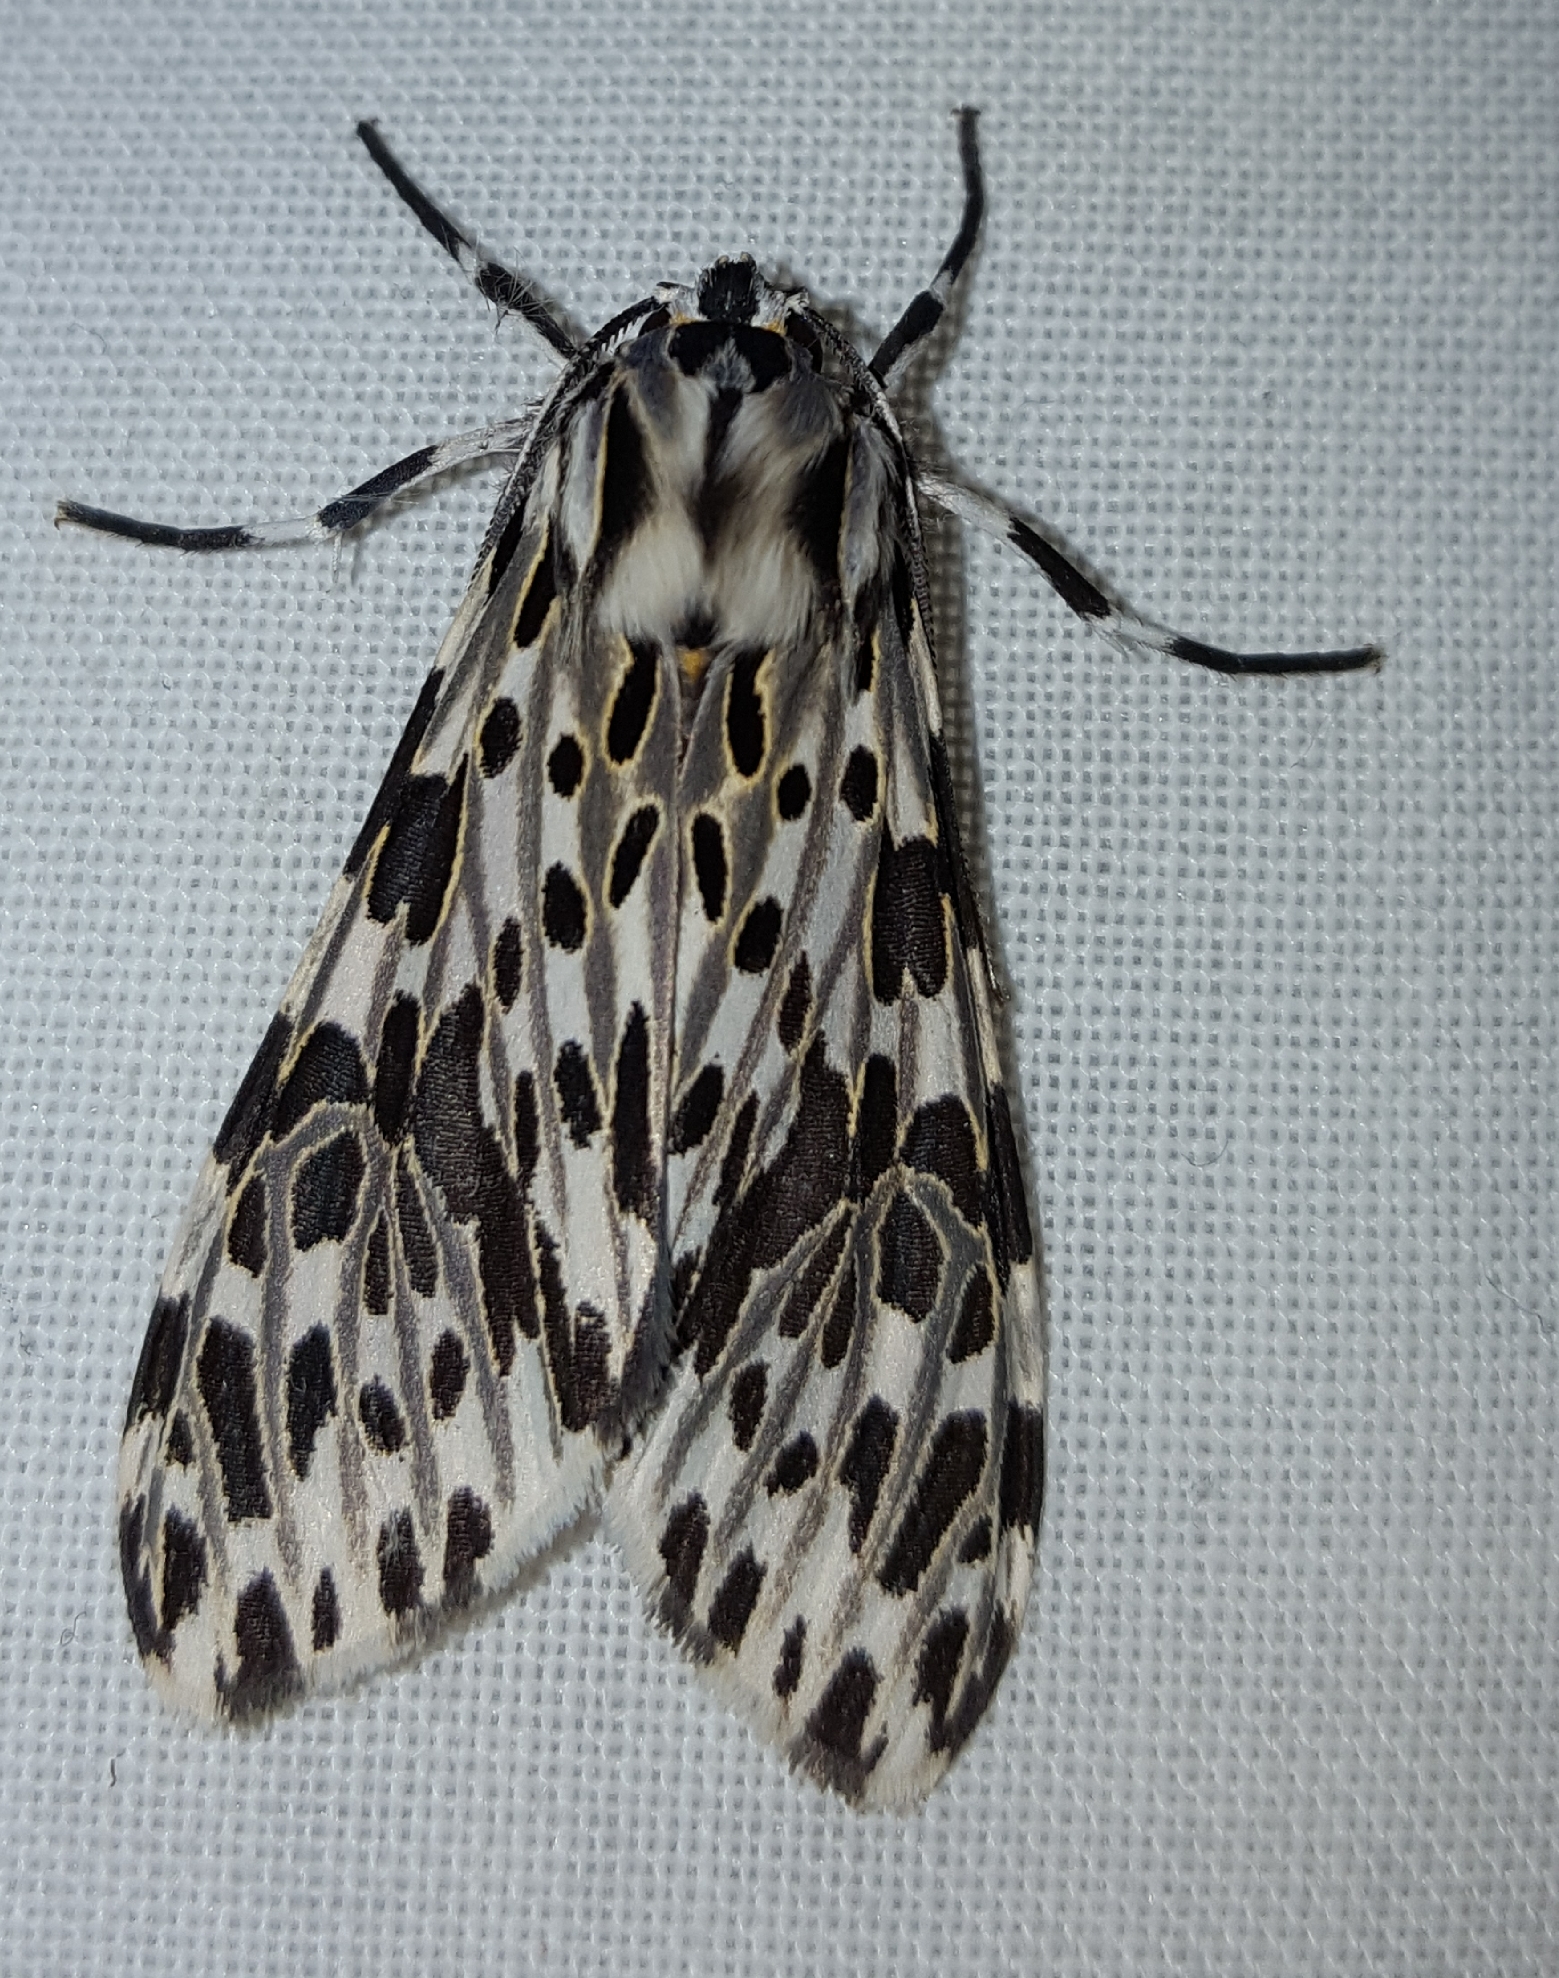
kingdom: Animalia
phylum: Arthropoda
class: Insecta
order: Lepidoptera
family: Erebidae
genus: Eucereon
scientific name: Eucereon confinis
